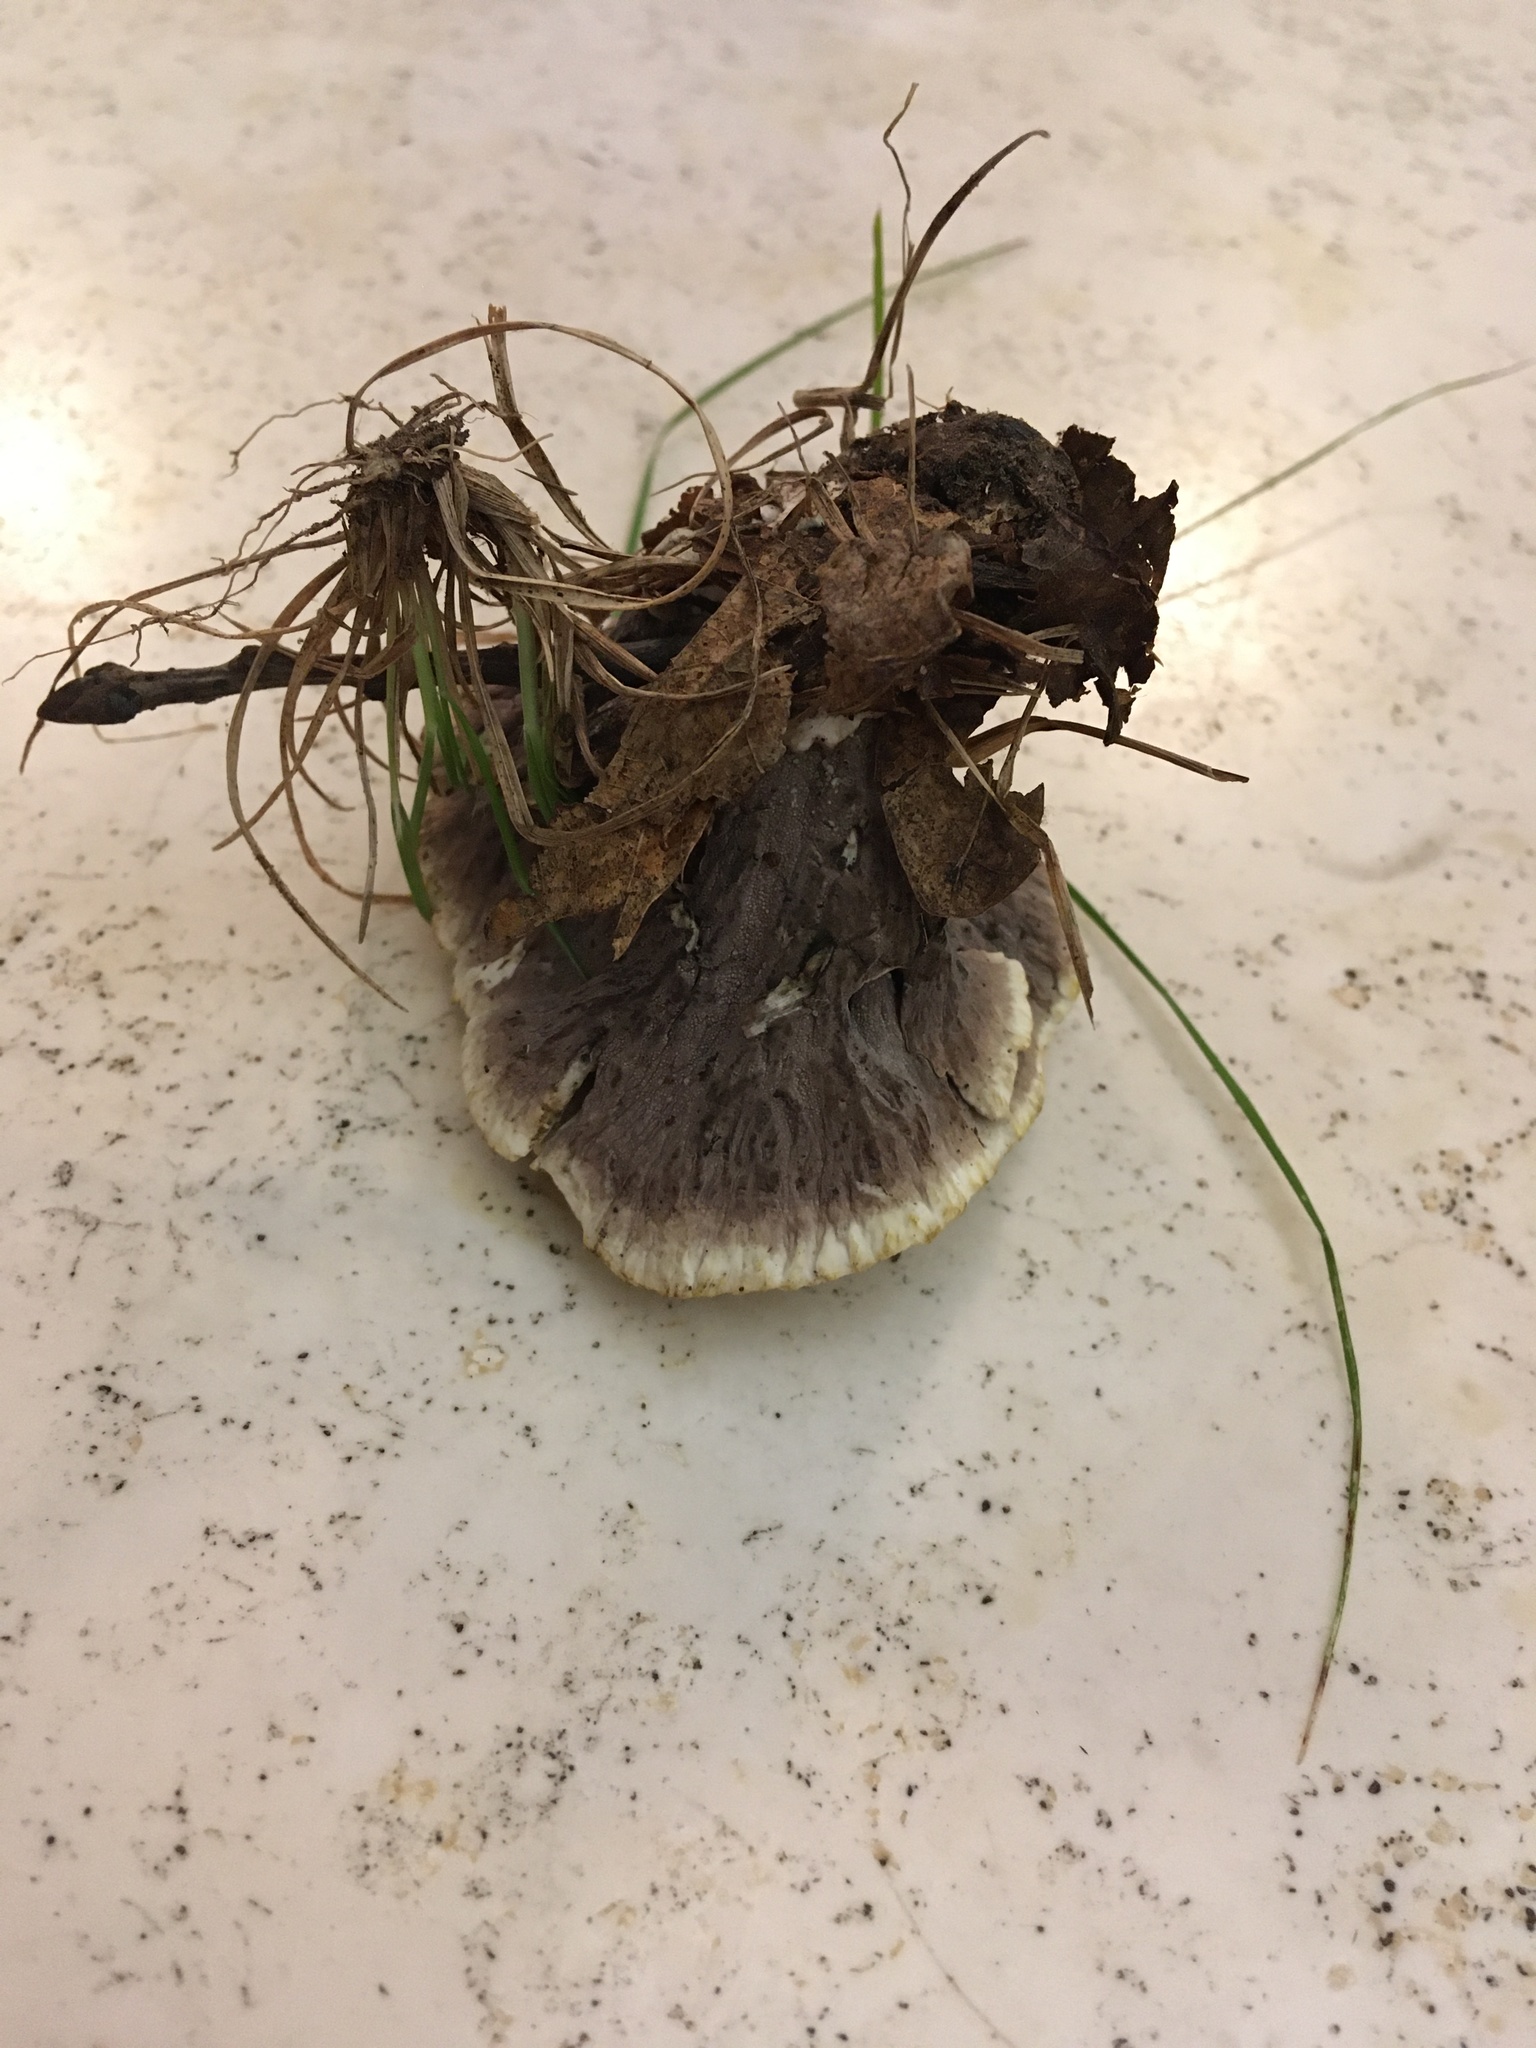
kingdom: Fungi
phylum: Basidiomycota
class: Agaricomycetes
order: Thelephorales
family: Thelephoraceae
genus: Thelephora
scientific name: Thelephora vialis
